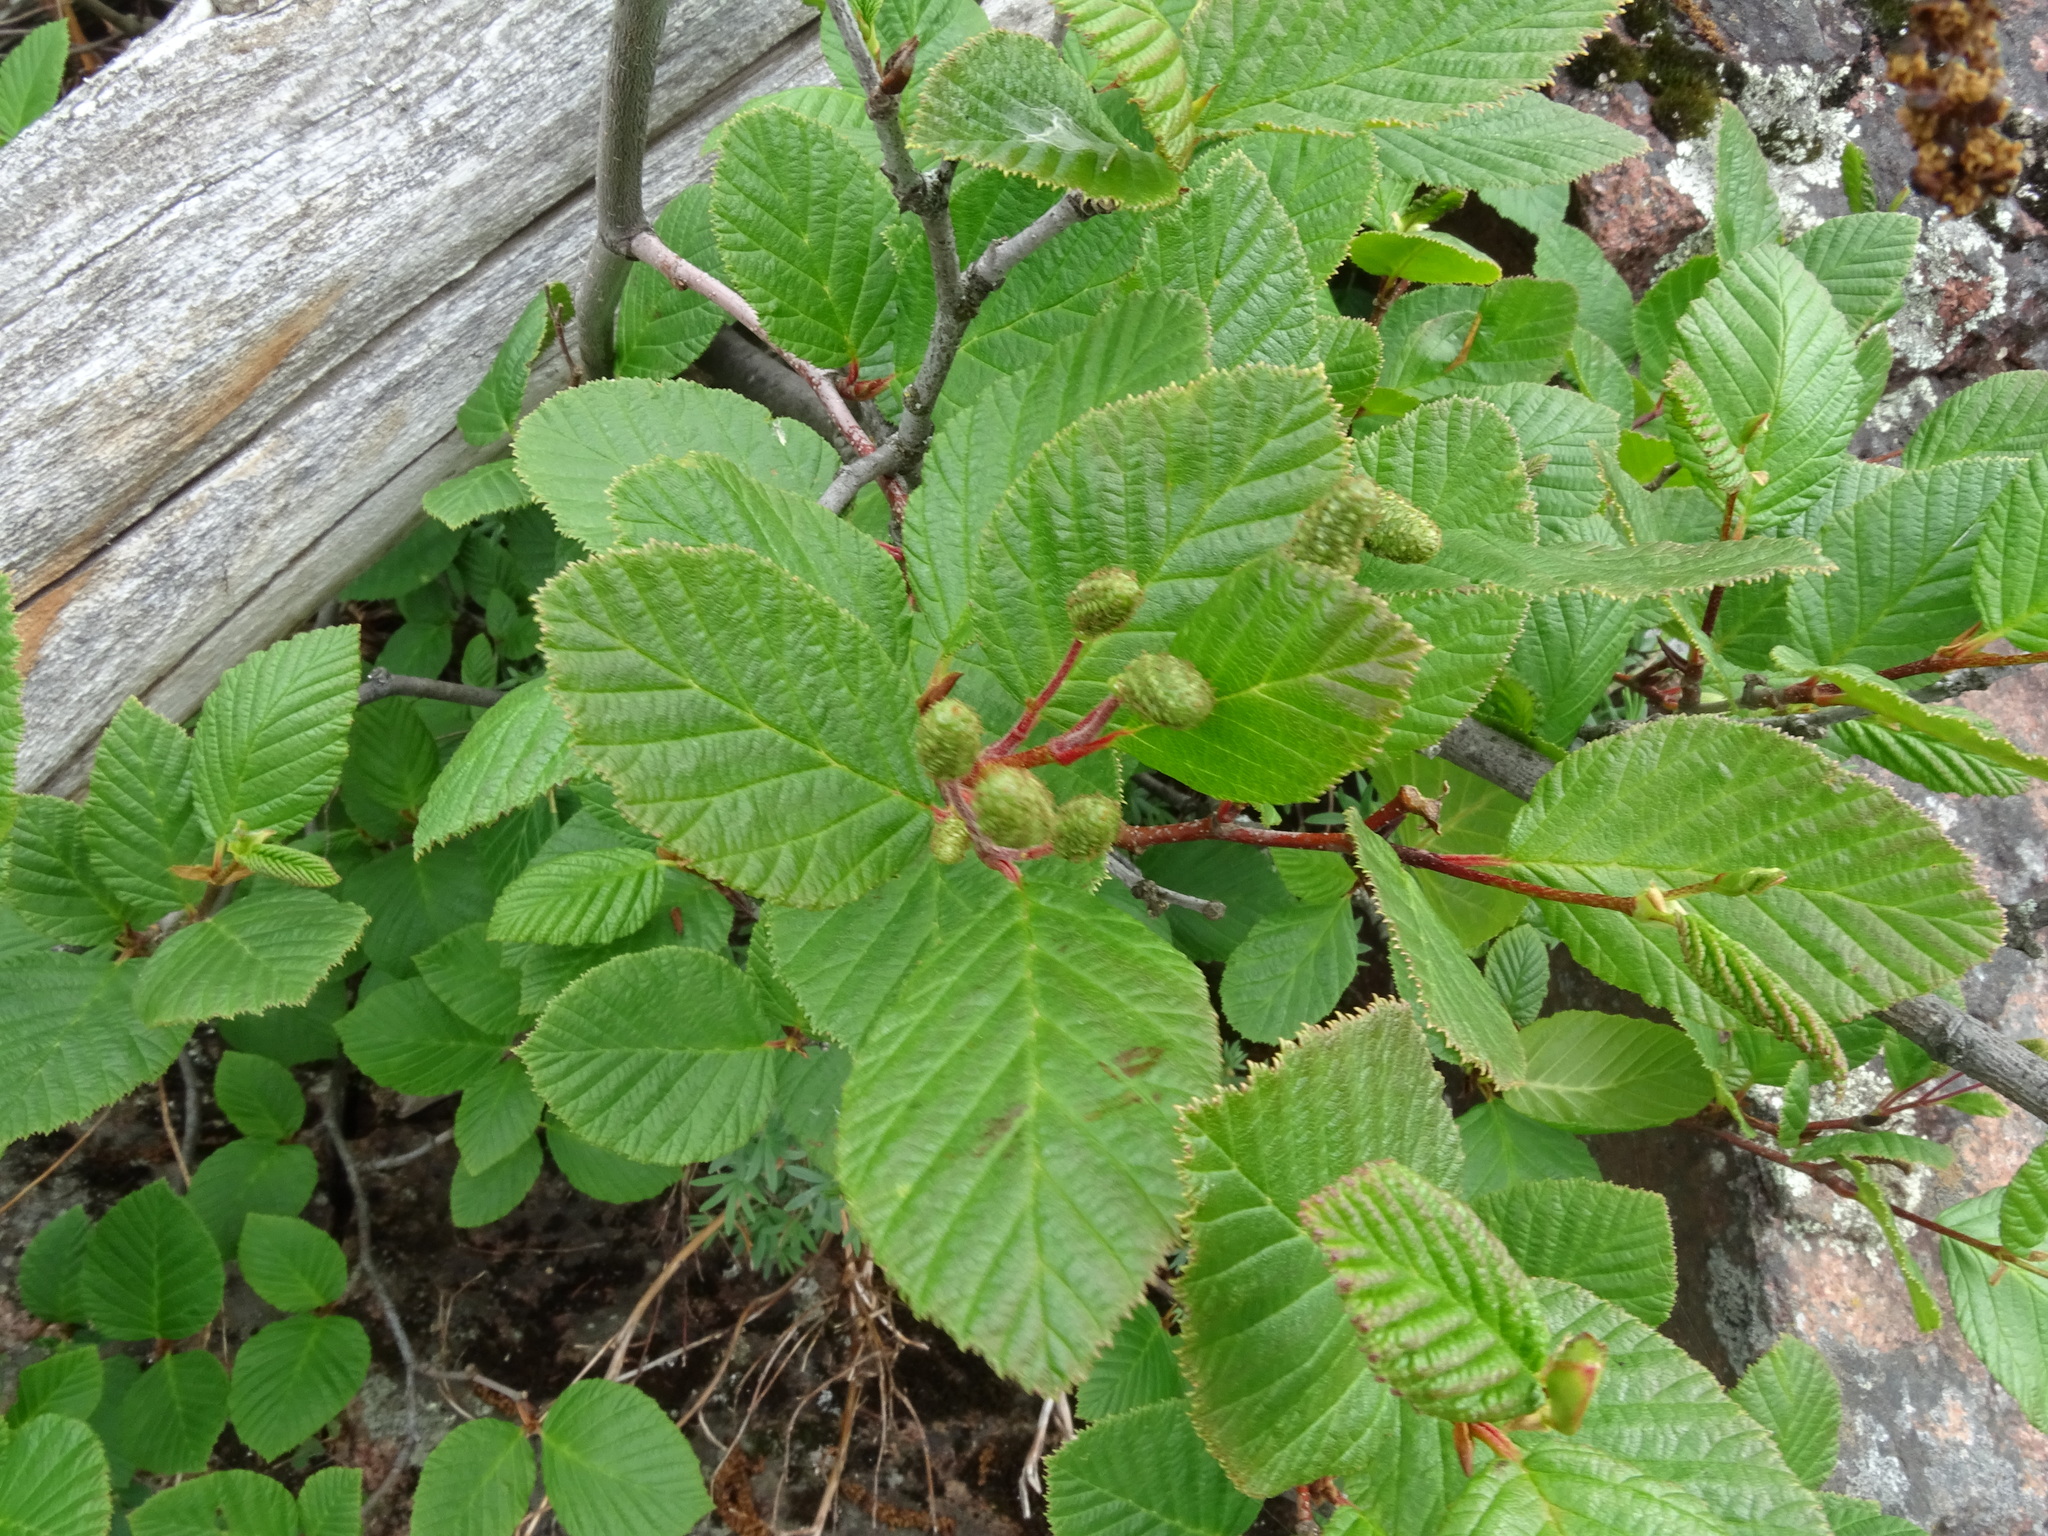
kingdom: Plantae
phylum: Tracheophyta
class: Magnoliopsida
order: Fagales
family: Betulaceae
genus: Alnus
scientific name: Alnus alnobetula
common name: Green alder
